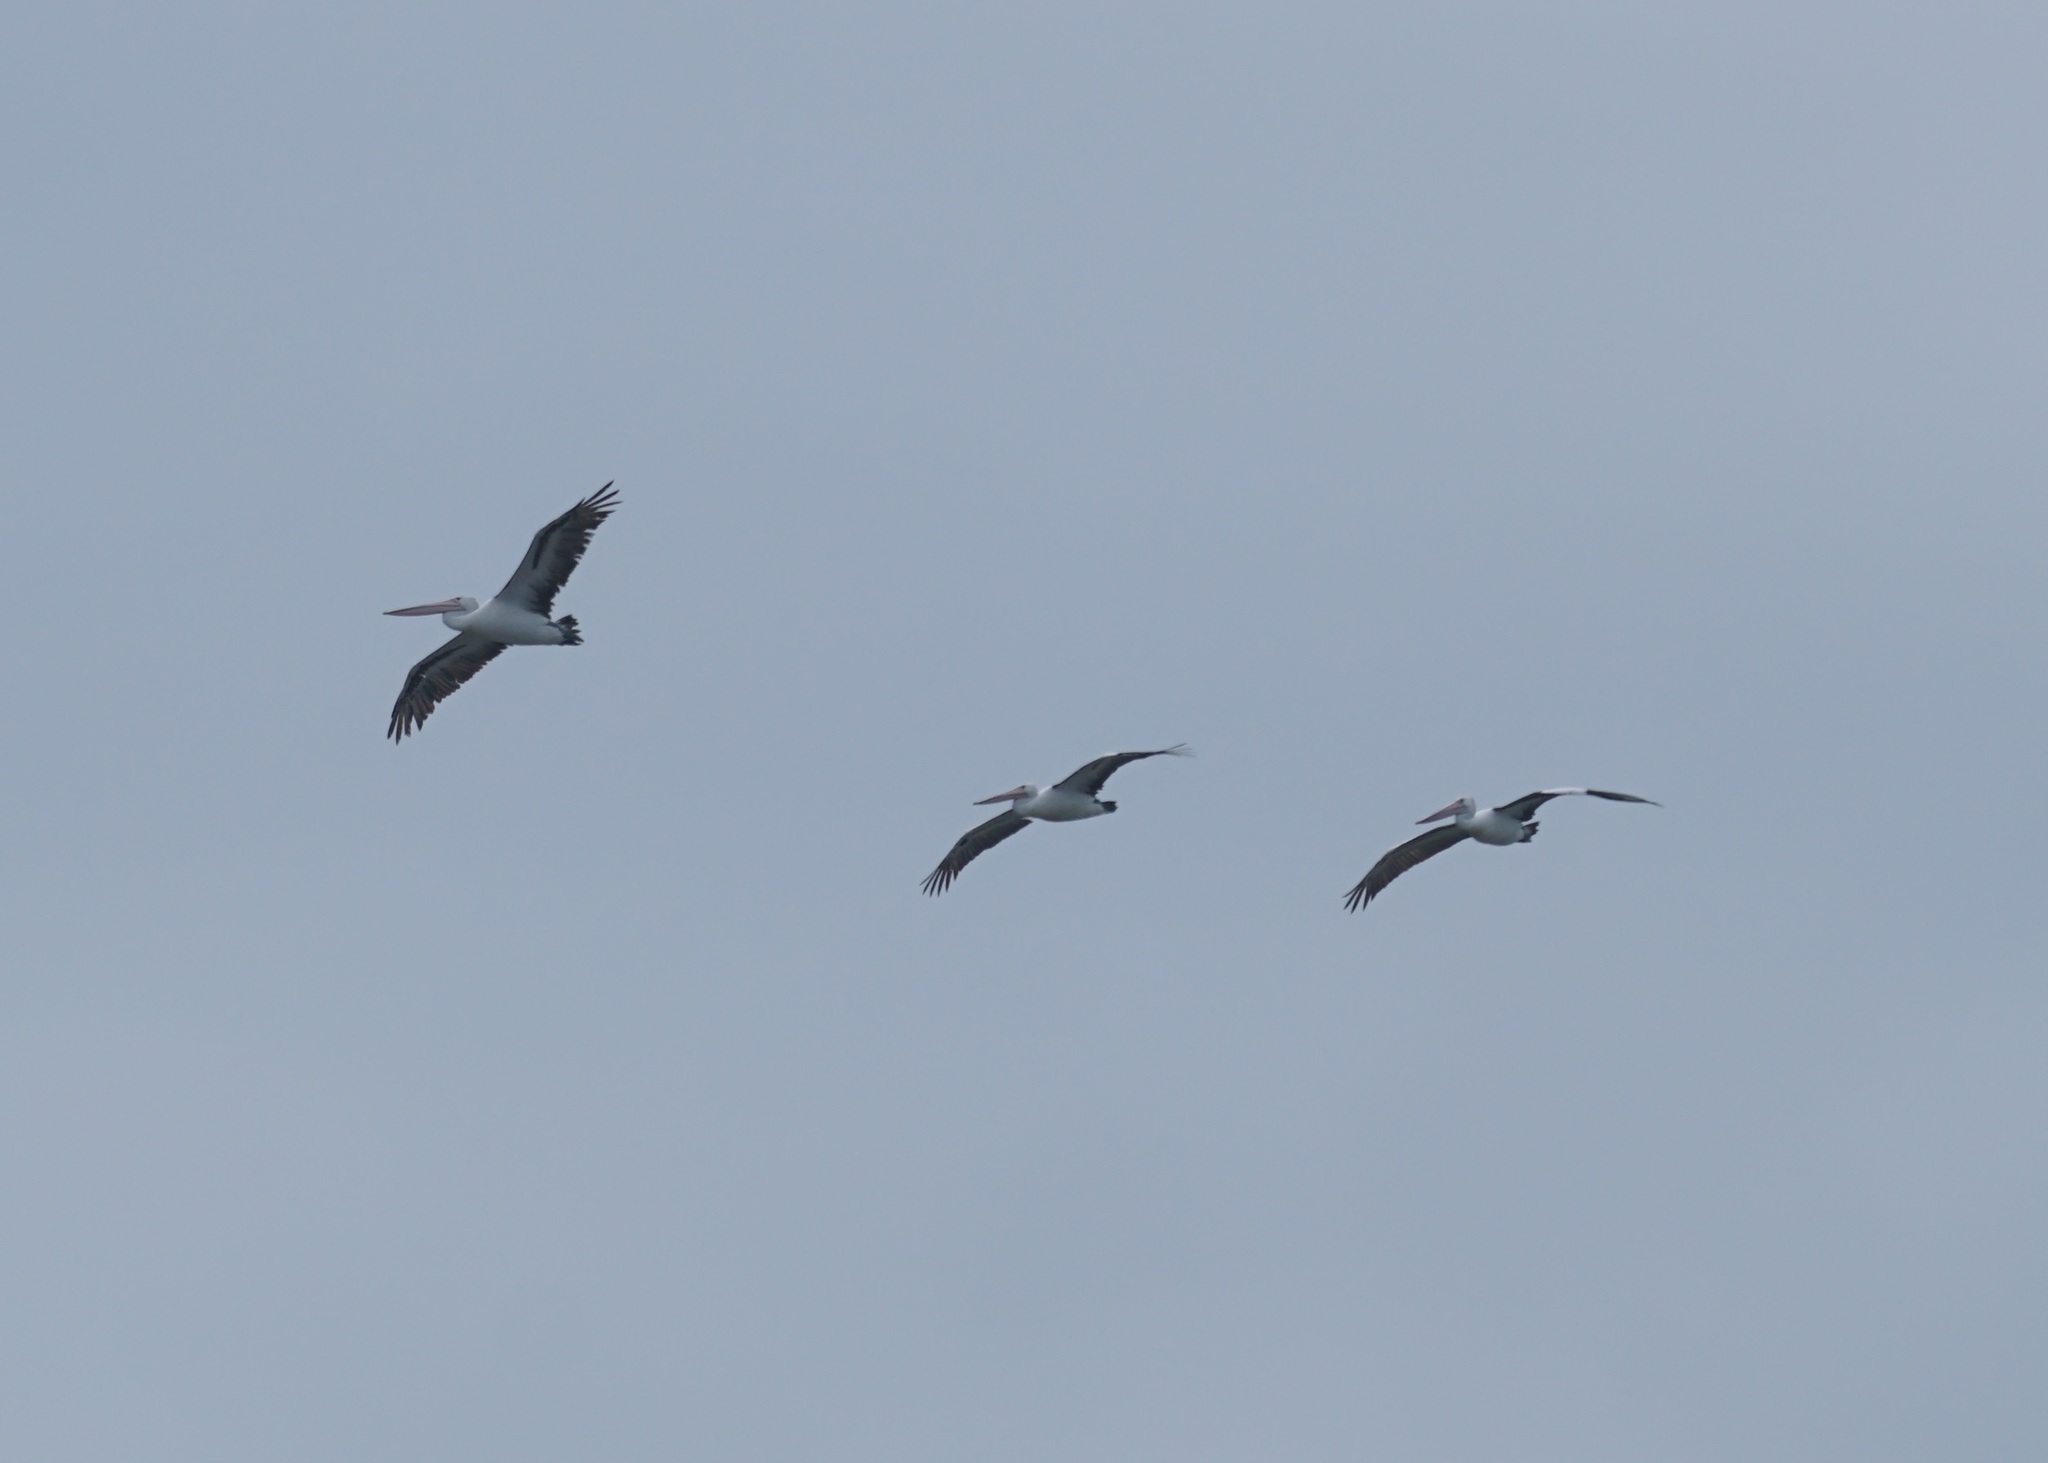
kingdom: Animalia
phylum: Chordata
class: Aves
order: Pelecaniformes
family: Pelecanidae
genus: Pelecanus
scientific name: Pelecanus conspicillatus
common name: Australian pelican
